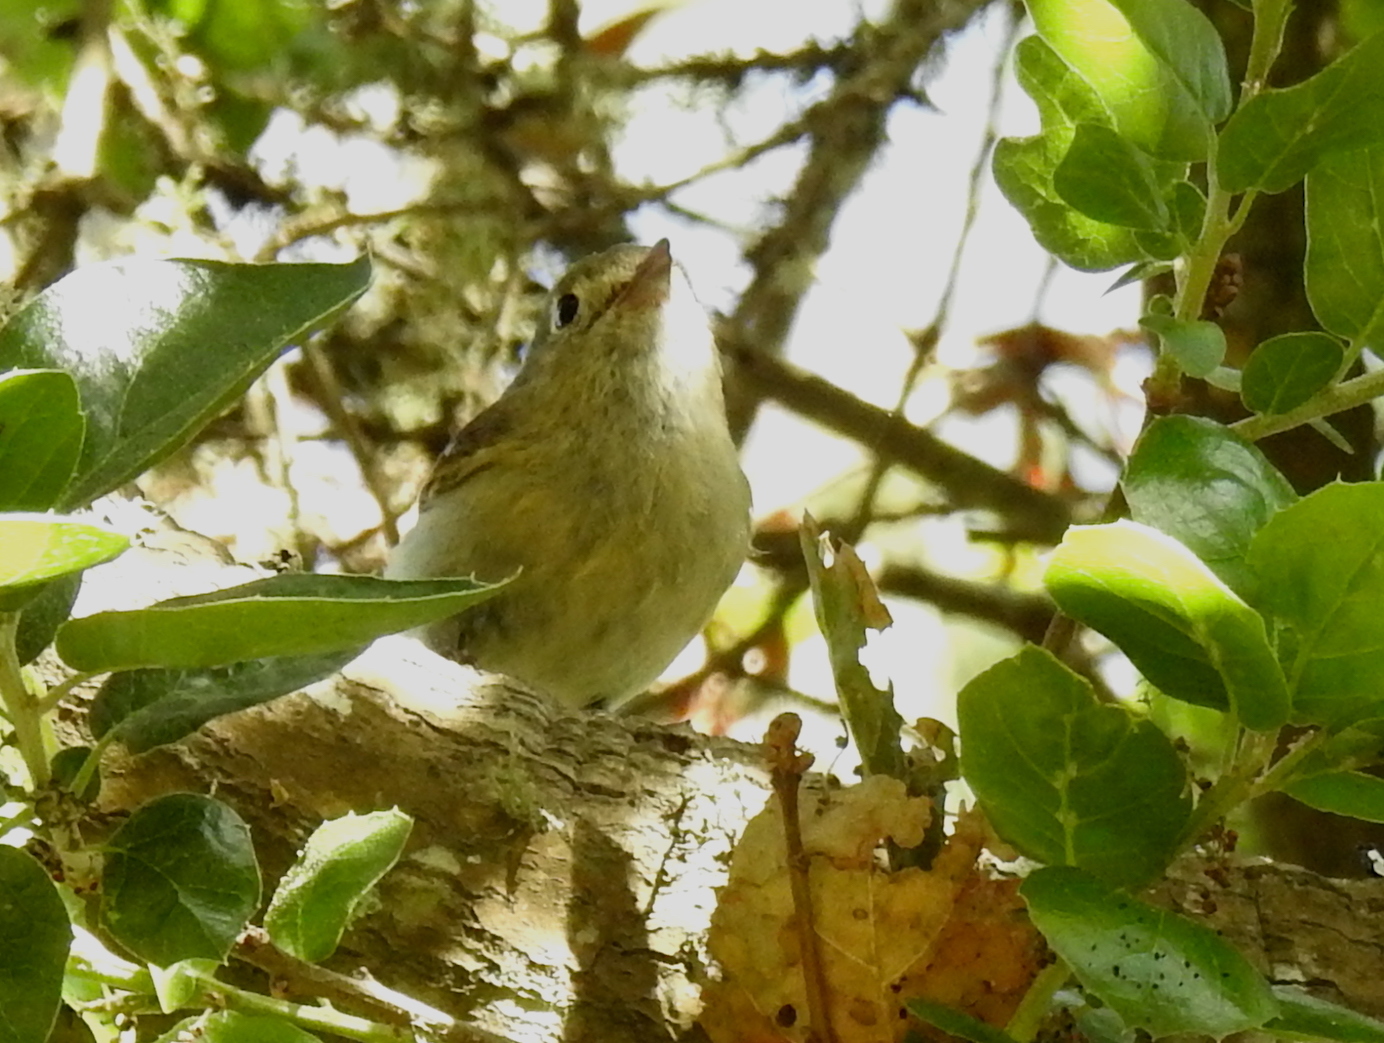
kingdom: Animalia
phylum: Chordata
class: Aves
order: Passeriformes
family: Vireonidae
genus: Vireo
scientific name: Vireo huttoni
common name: Hutton's vireo
